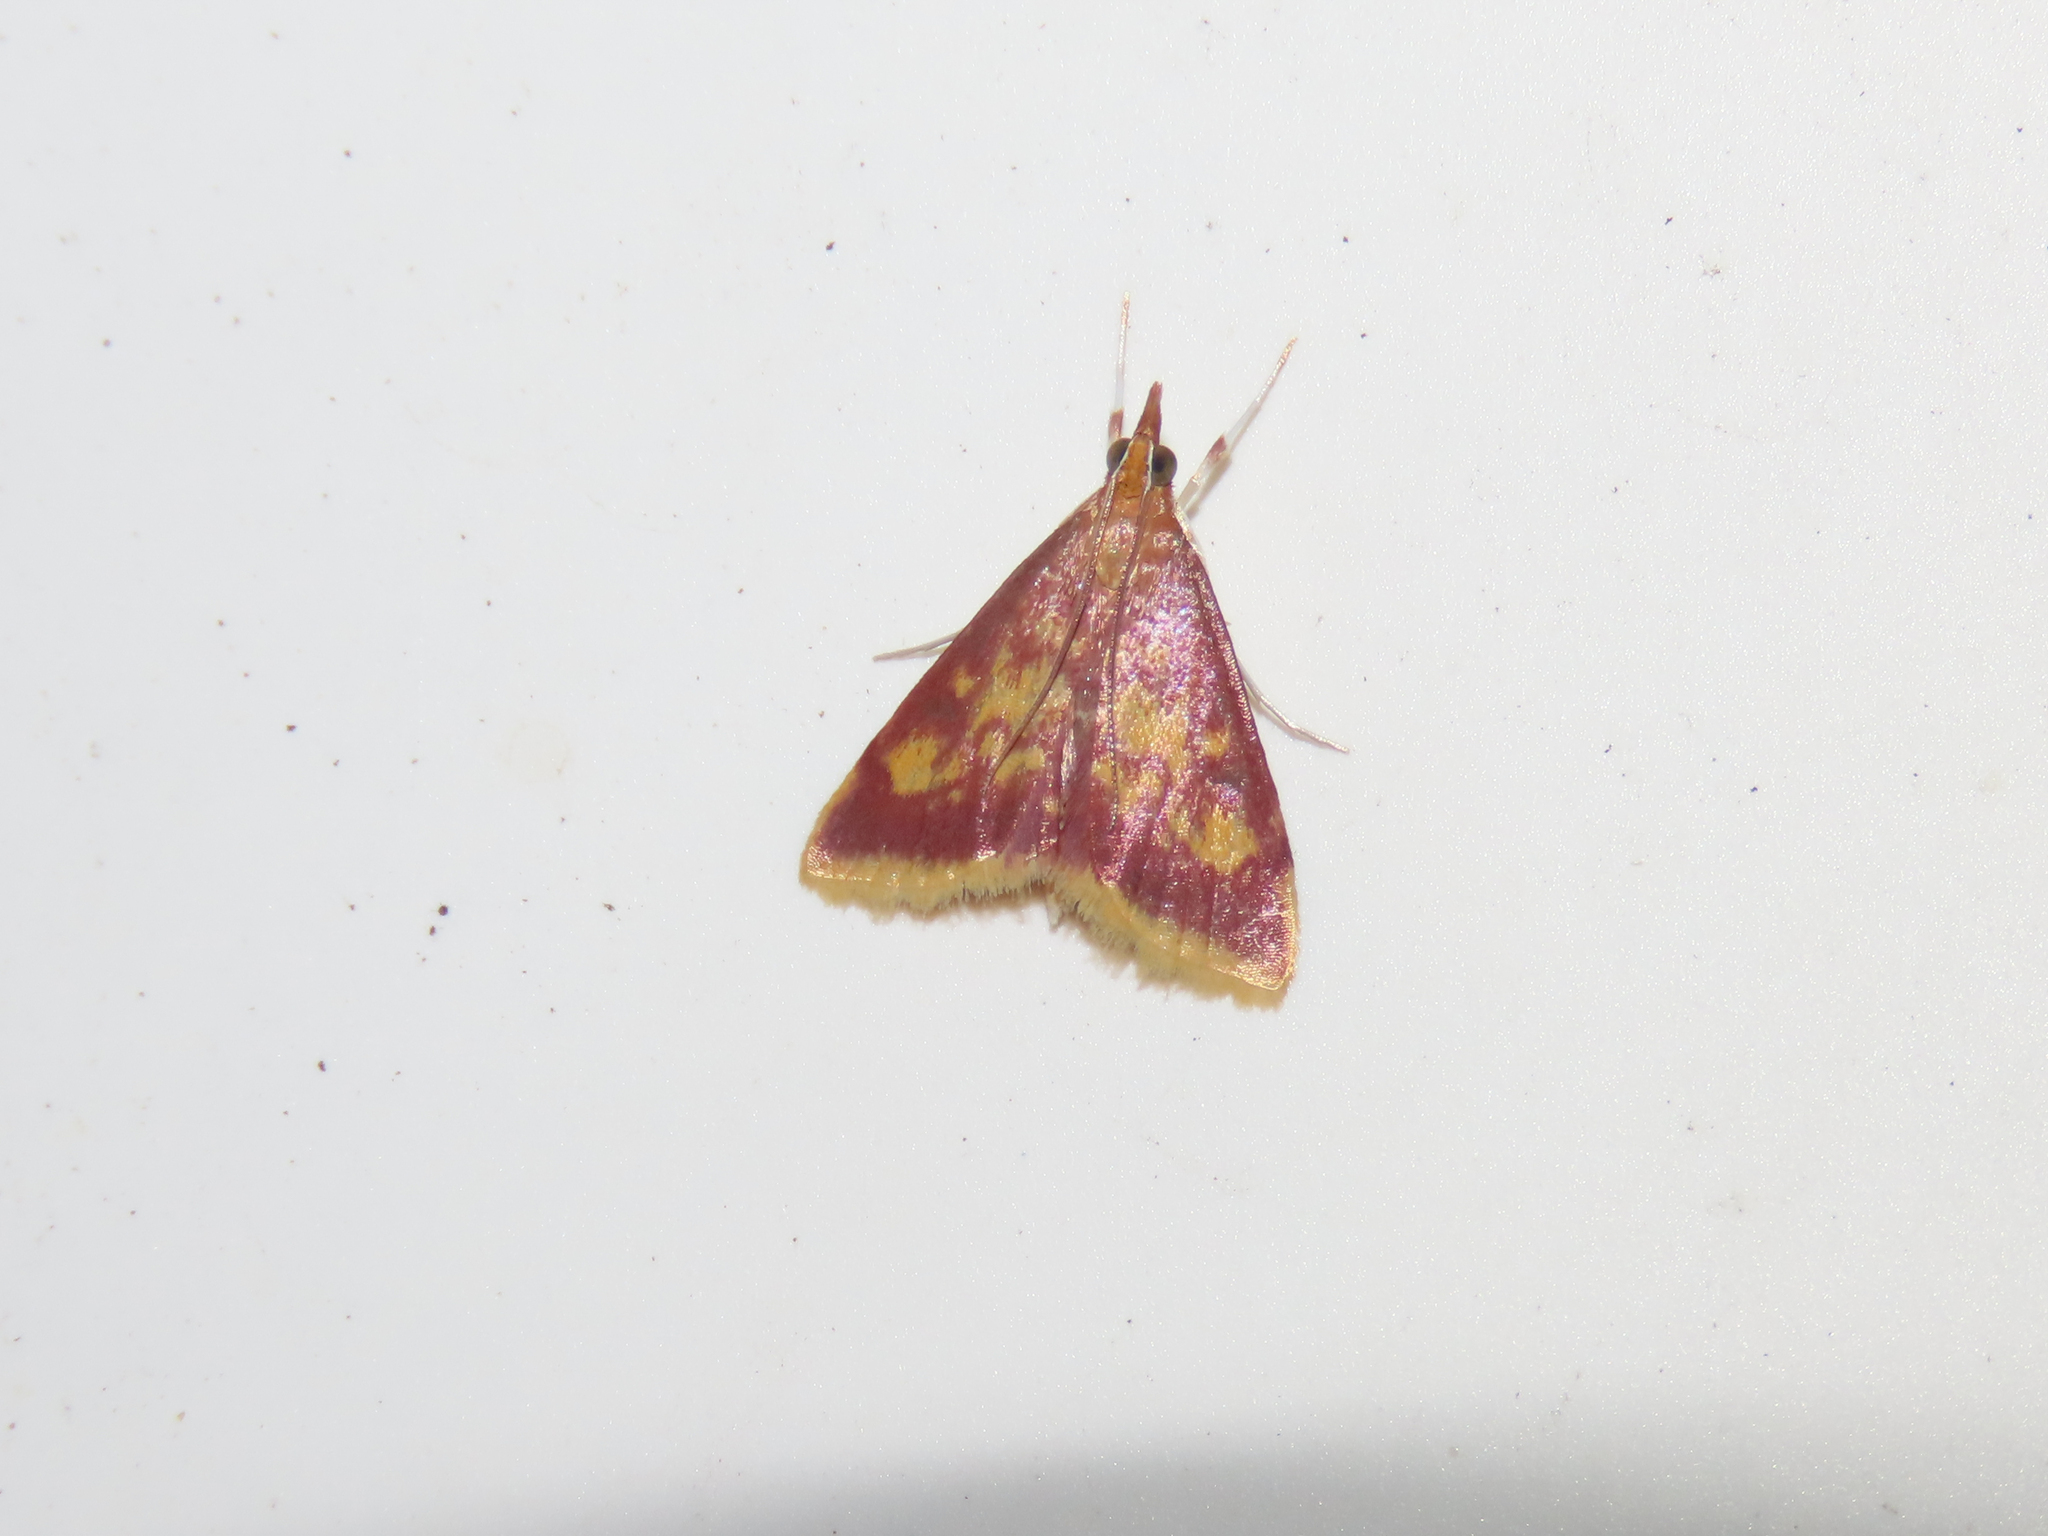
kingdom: Animalia
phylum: Arthropoda
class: Insecta
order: Lepidoptera
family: Crambidae
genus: Pyrausta
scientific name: Pyrausta acrionalis
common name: Mint-loving pyrausta moth
